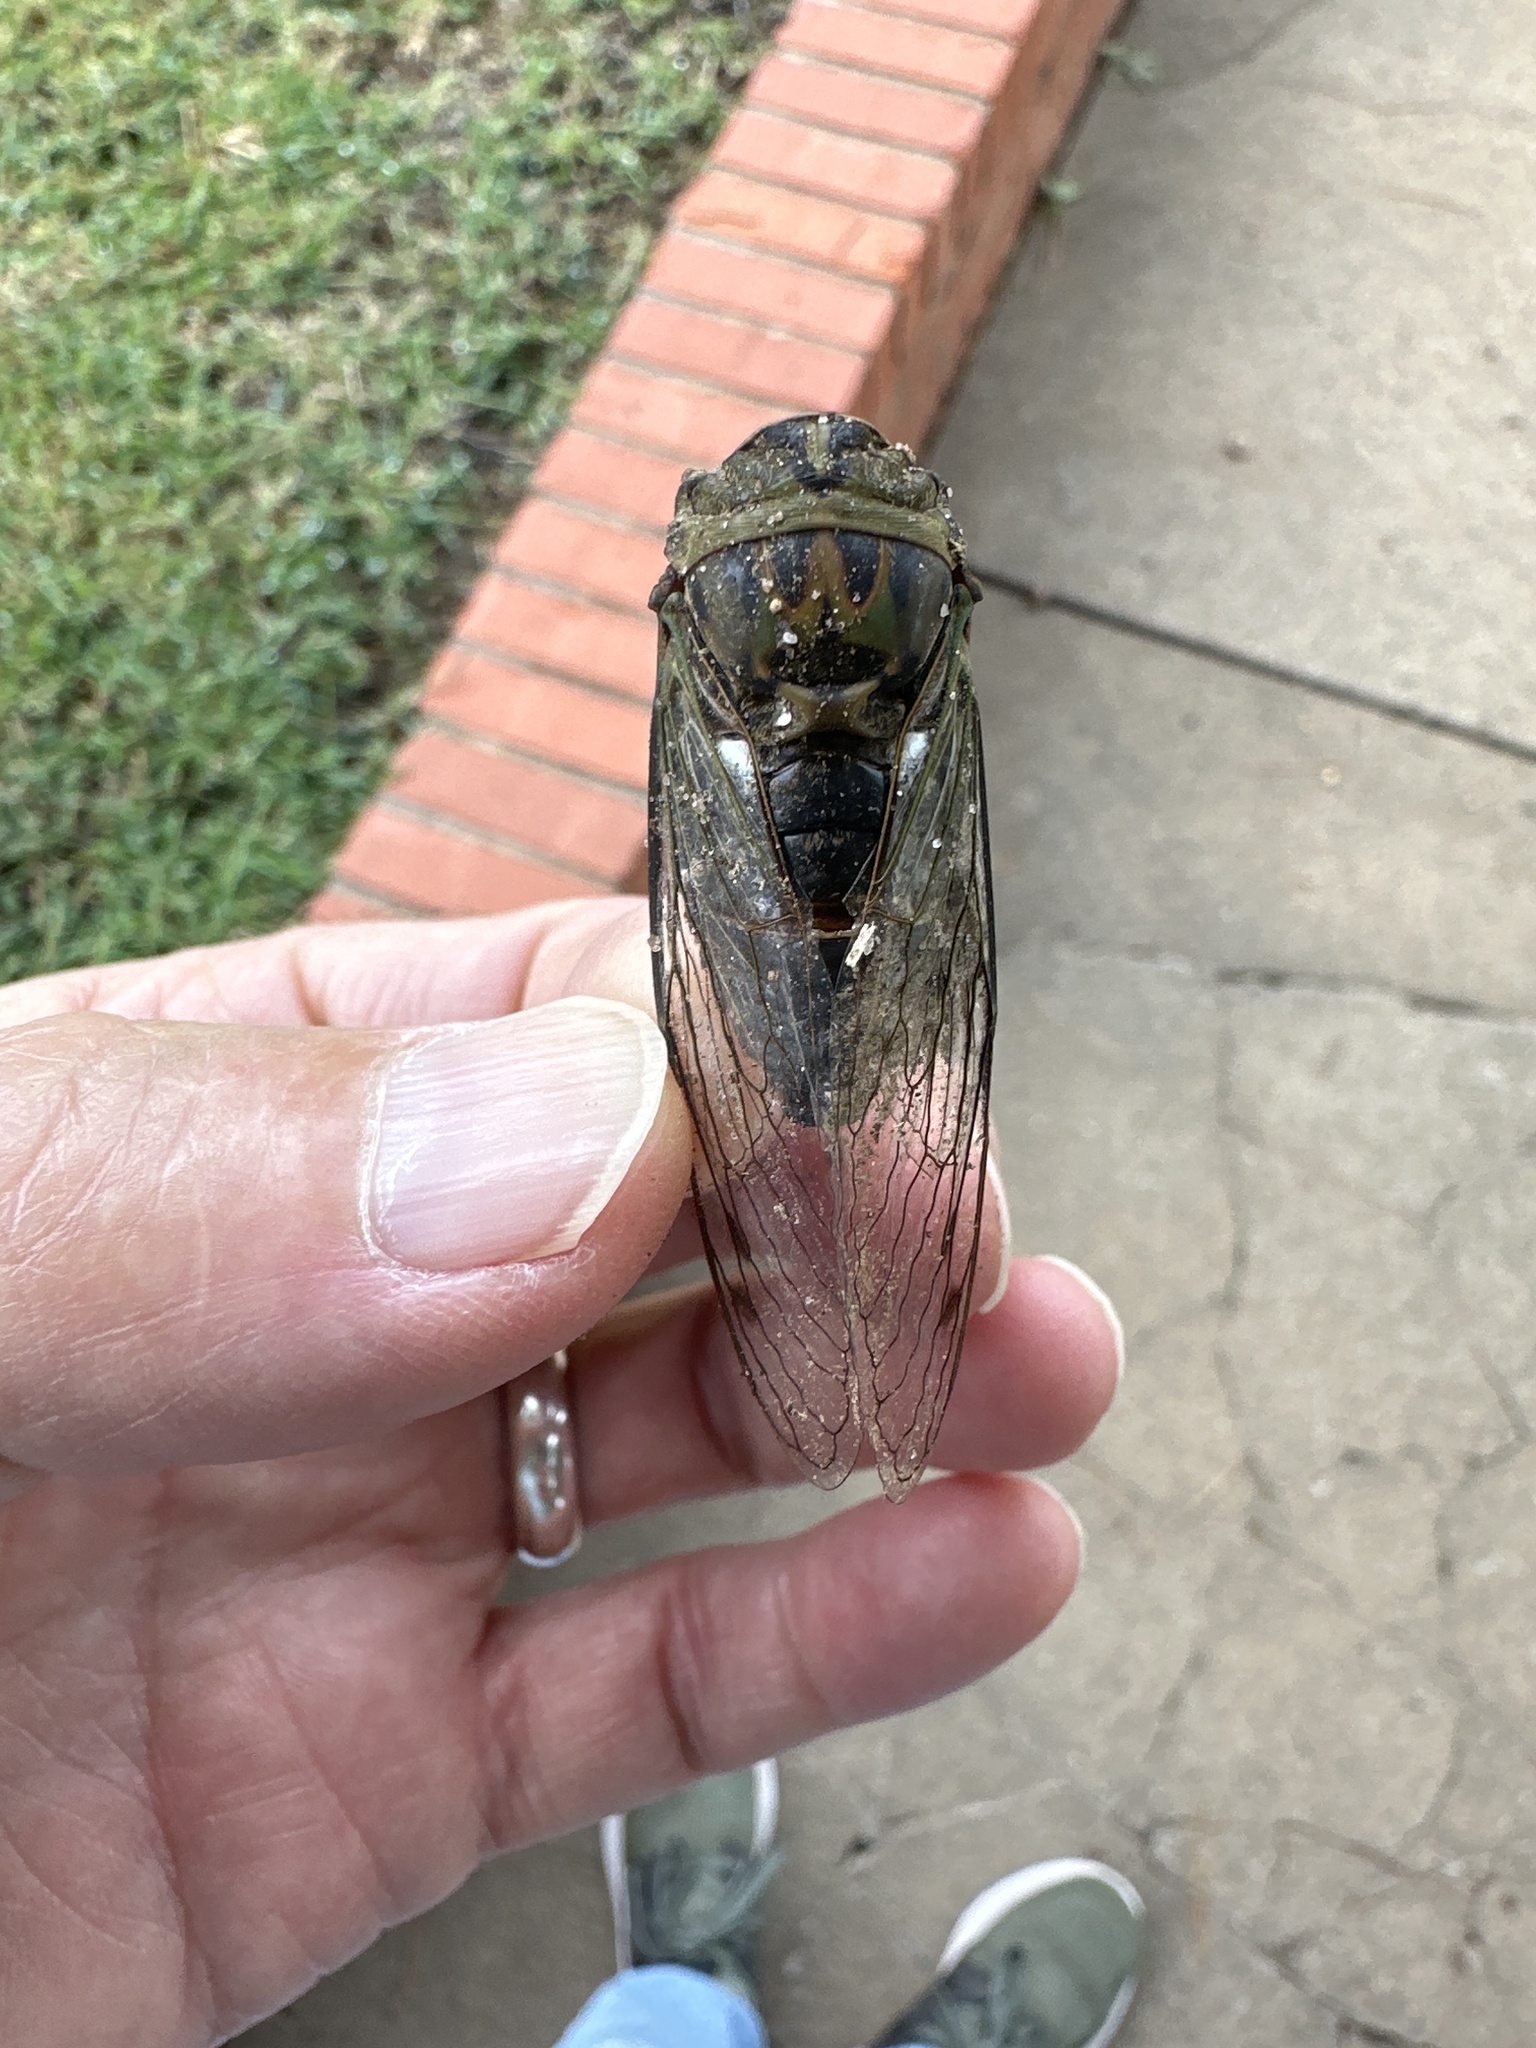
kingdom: Animalia
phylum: Arthropoda
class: Insecta
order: Hemiptera
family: Cicadidae
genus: Neotibicen
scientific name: Neotibicen pruinosus
